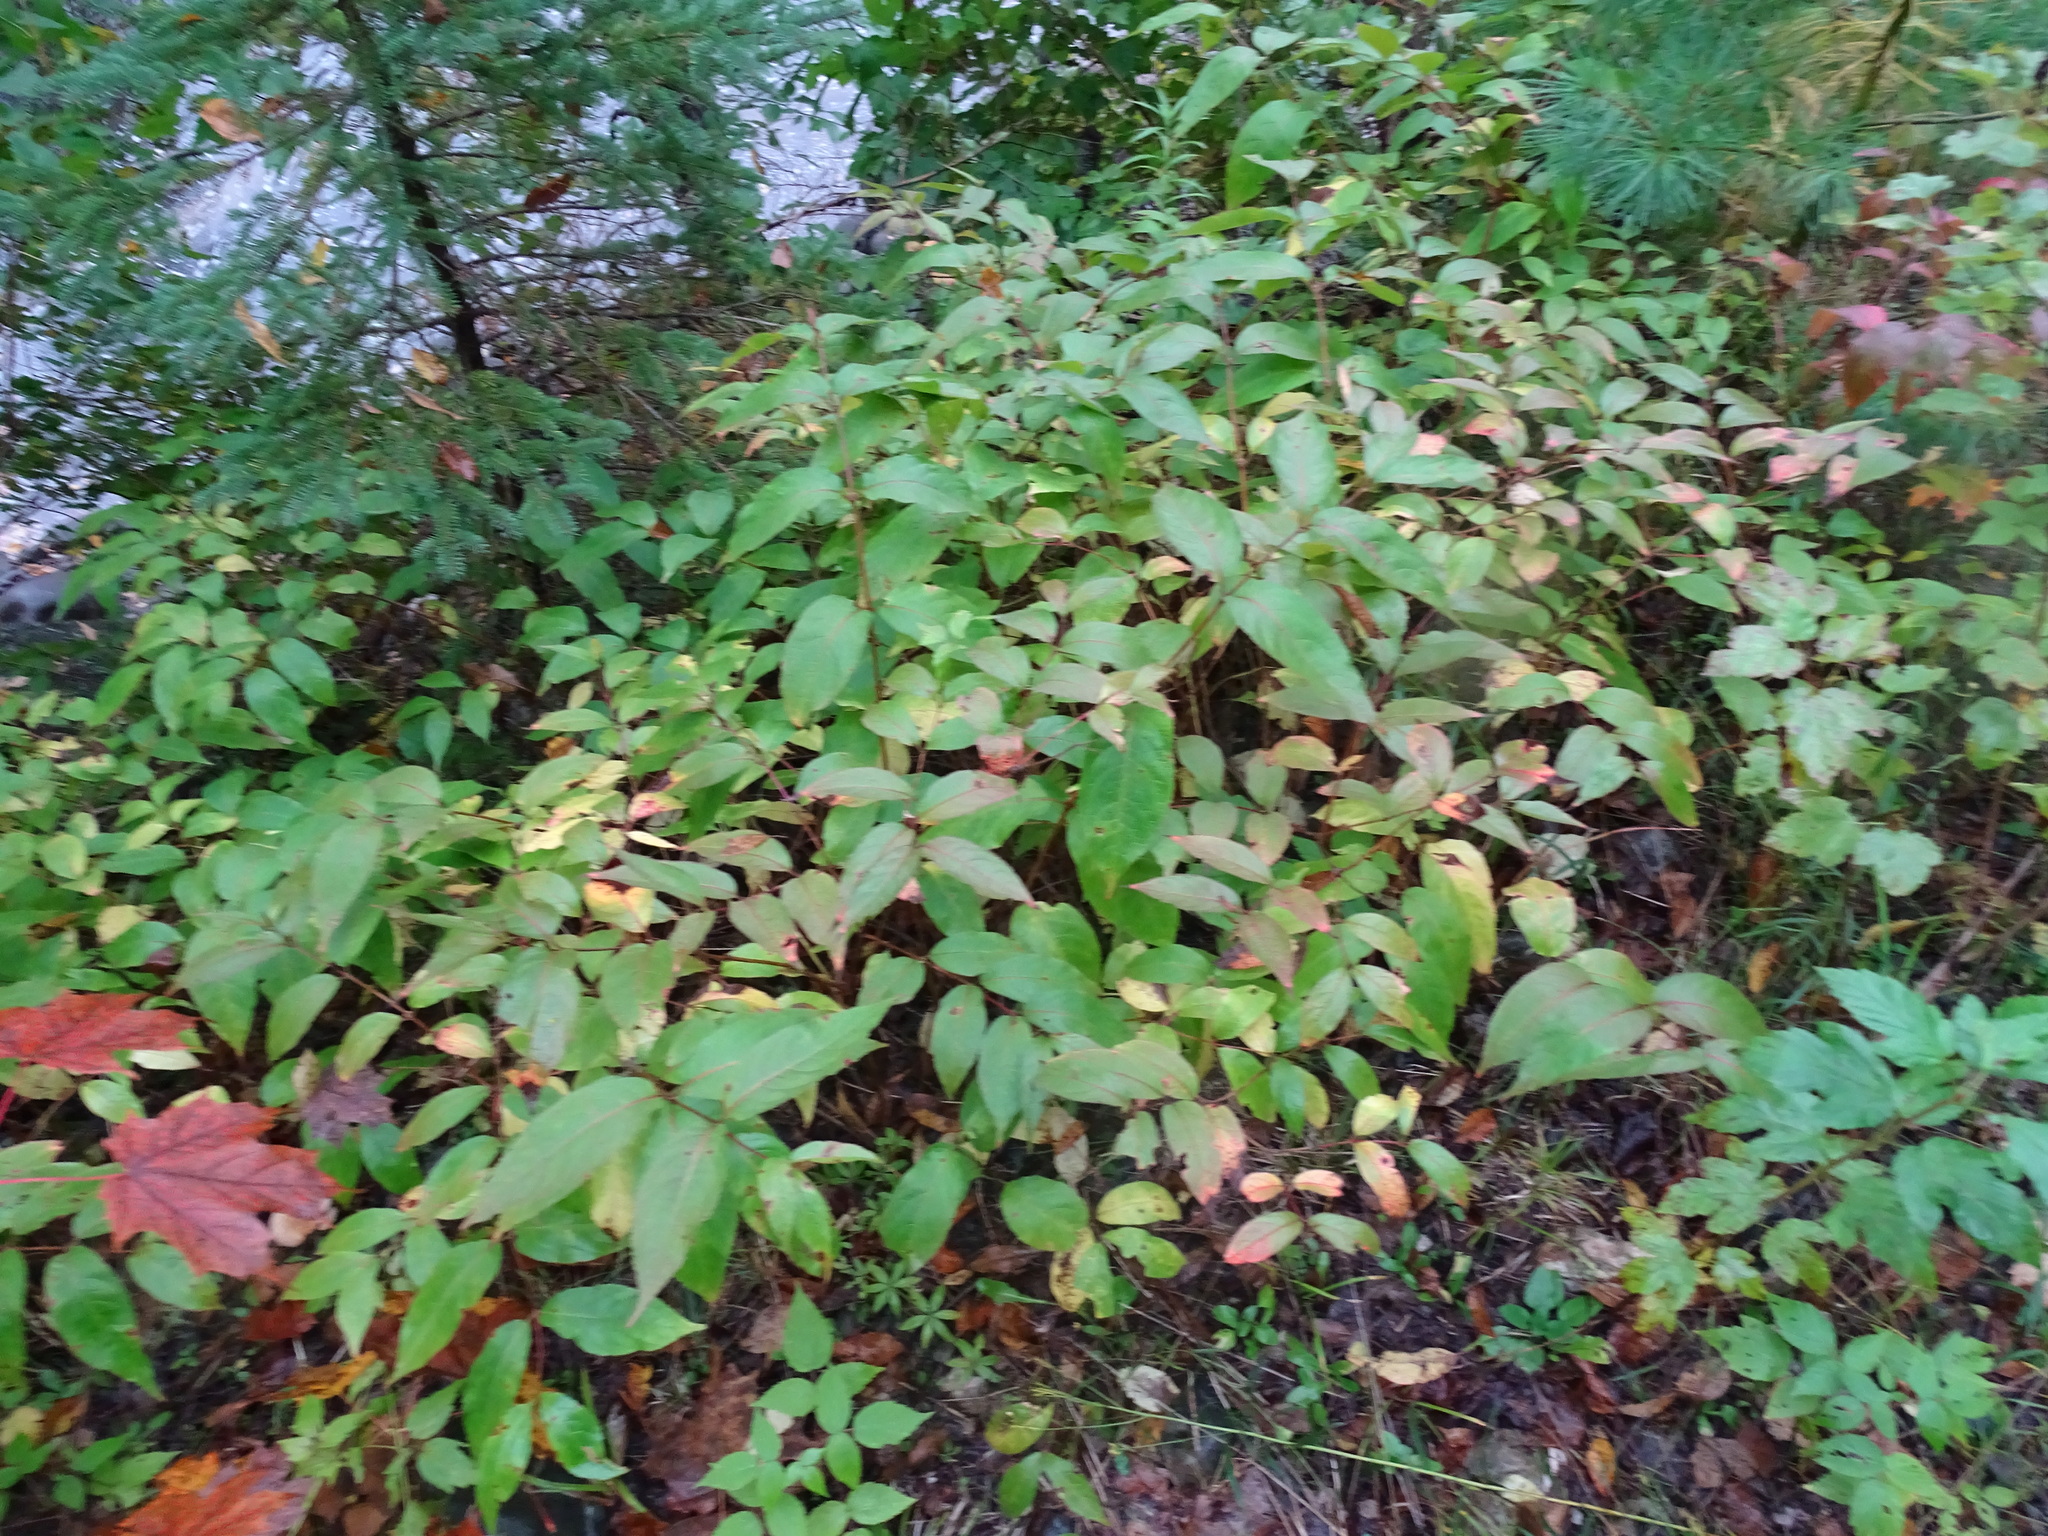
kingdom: Plantae
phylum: Tracheophyta
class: Magnoliopsida
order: Dipsacales
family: Caprifoliaceae
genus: Diervilla
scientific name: Diervilla lonicera
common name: Bush-honeysuckle
